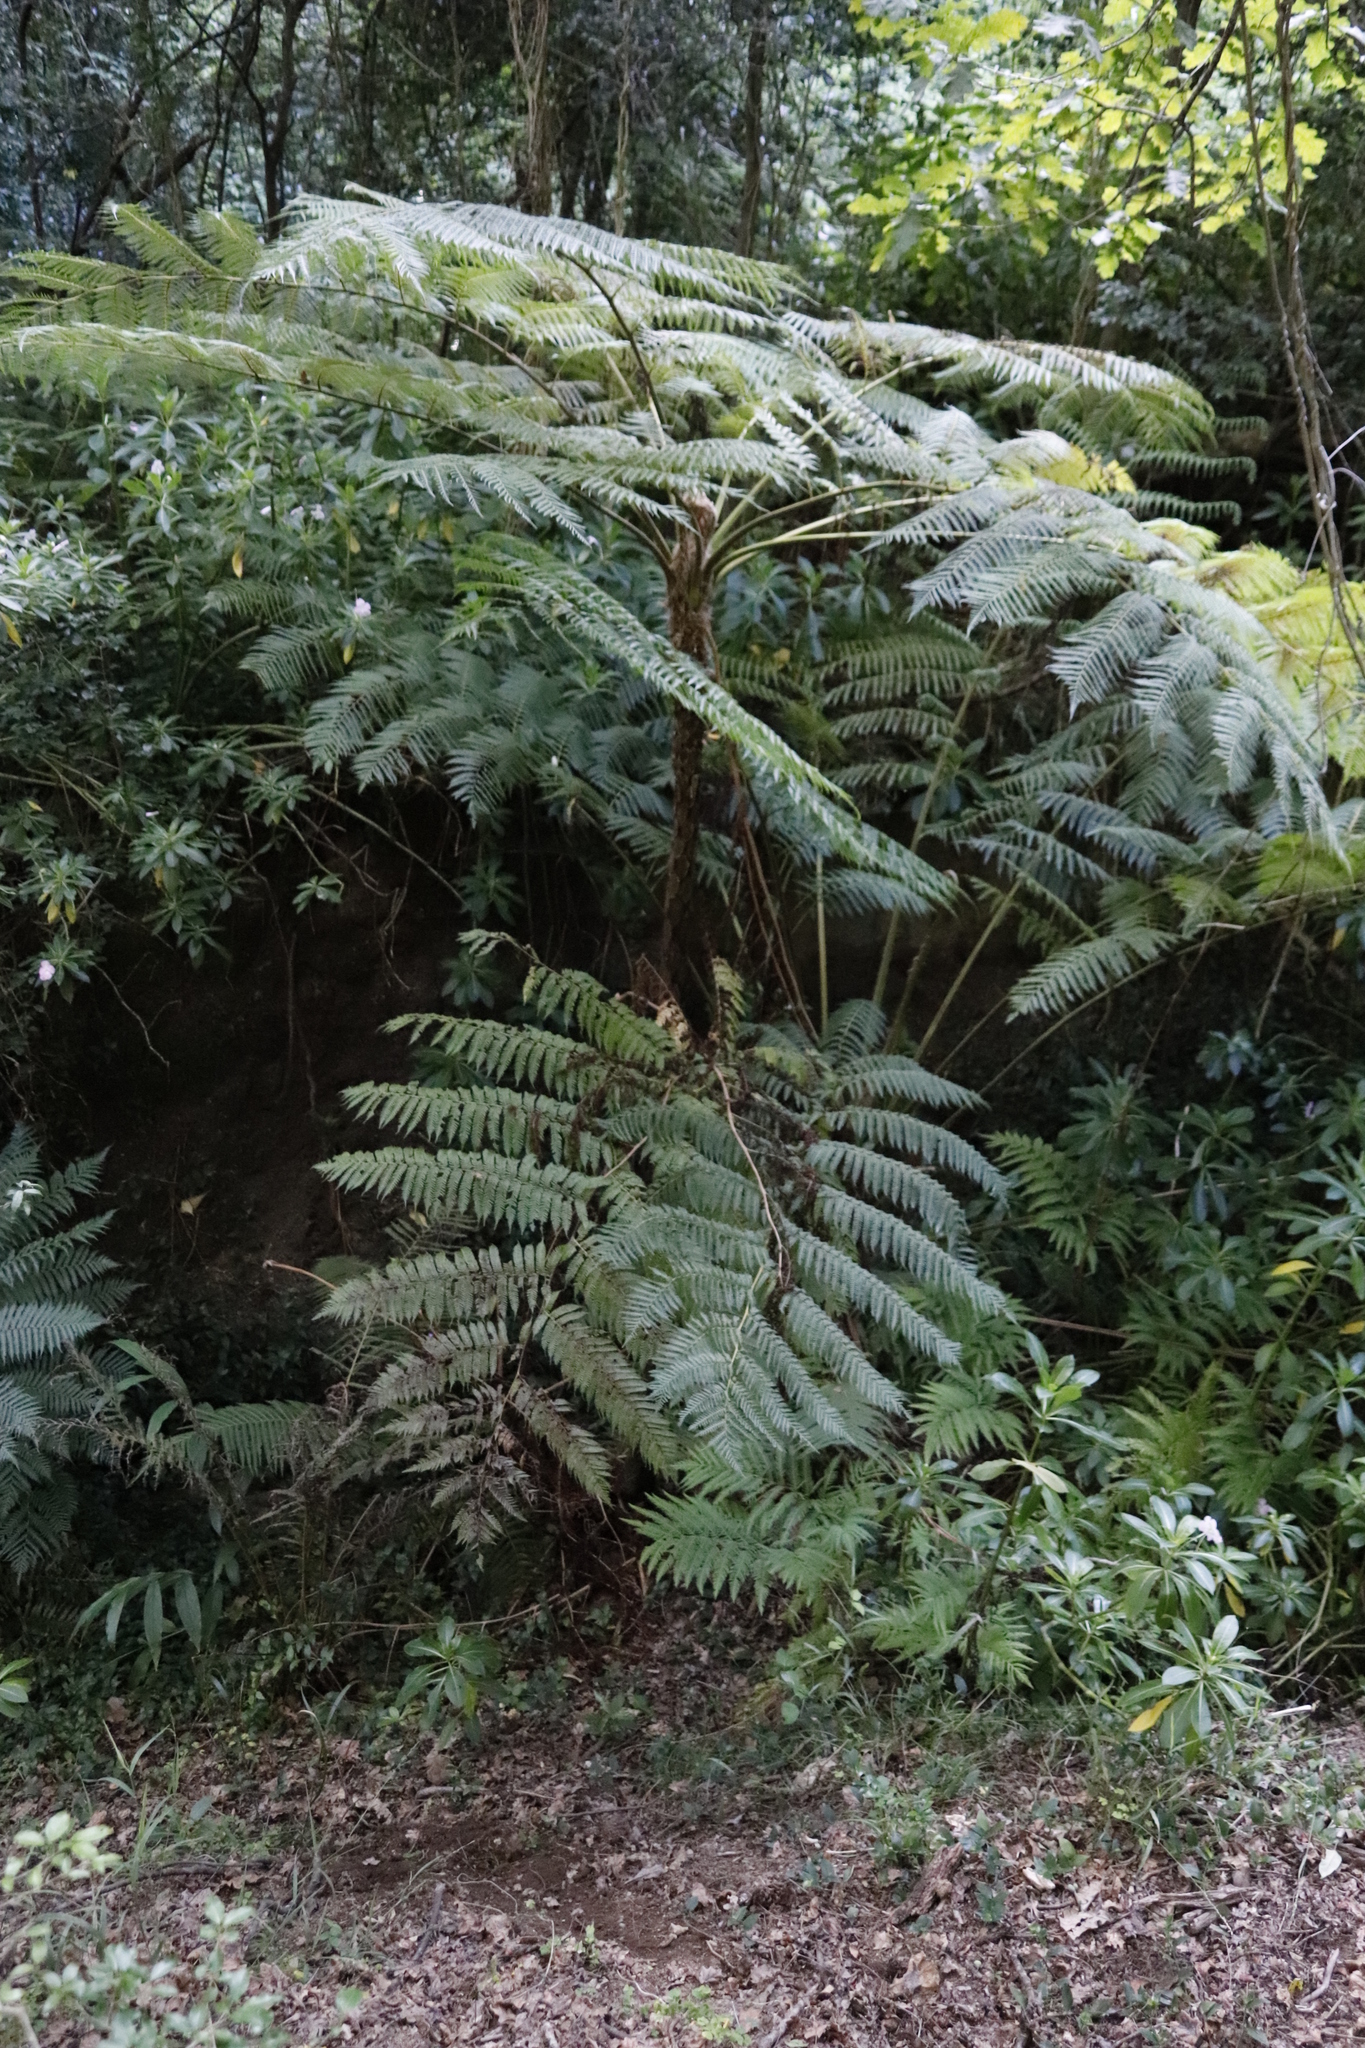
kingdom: Plantae
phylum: Tracheophyta
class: Polypodiopsida
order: Cyatheales
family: Cyatheaceae
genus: Sphaeropteris
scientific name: Sphaeropteris cooperi
